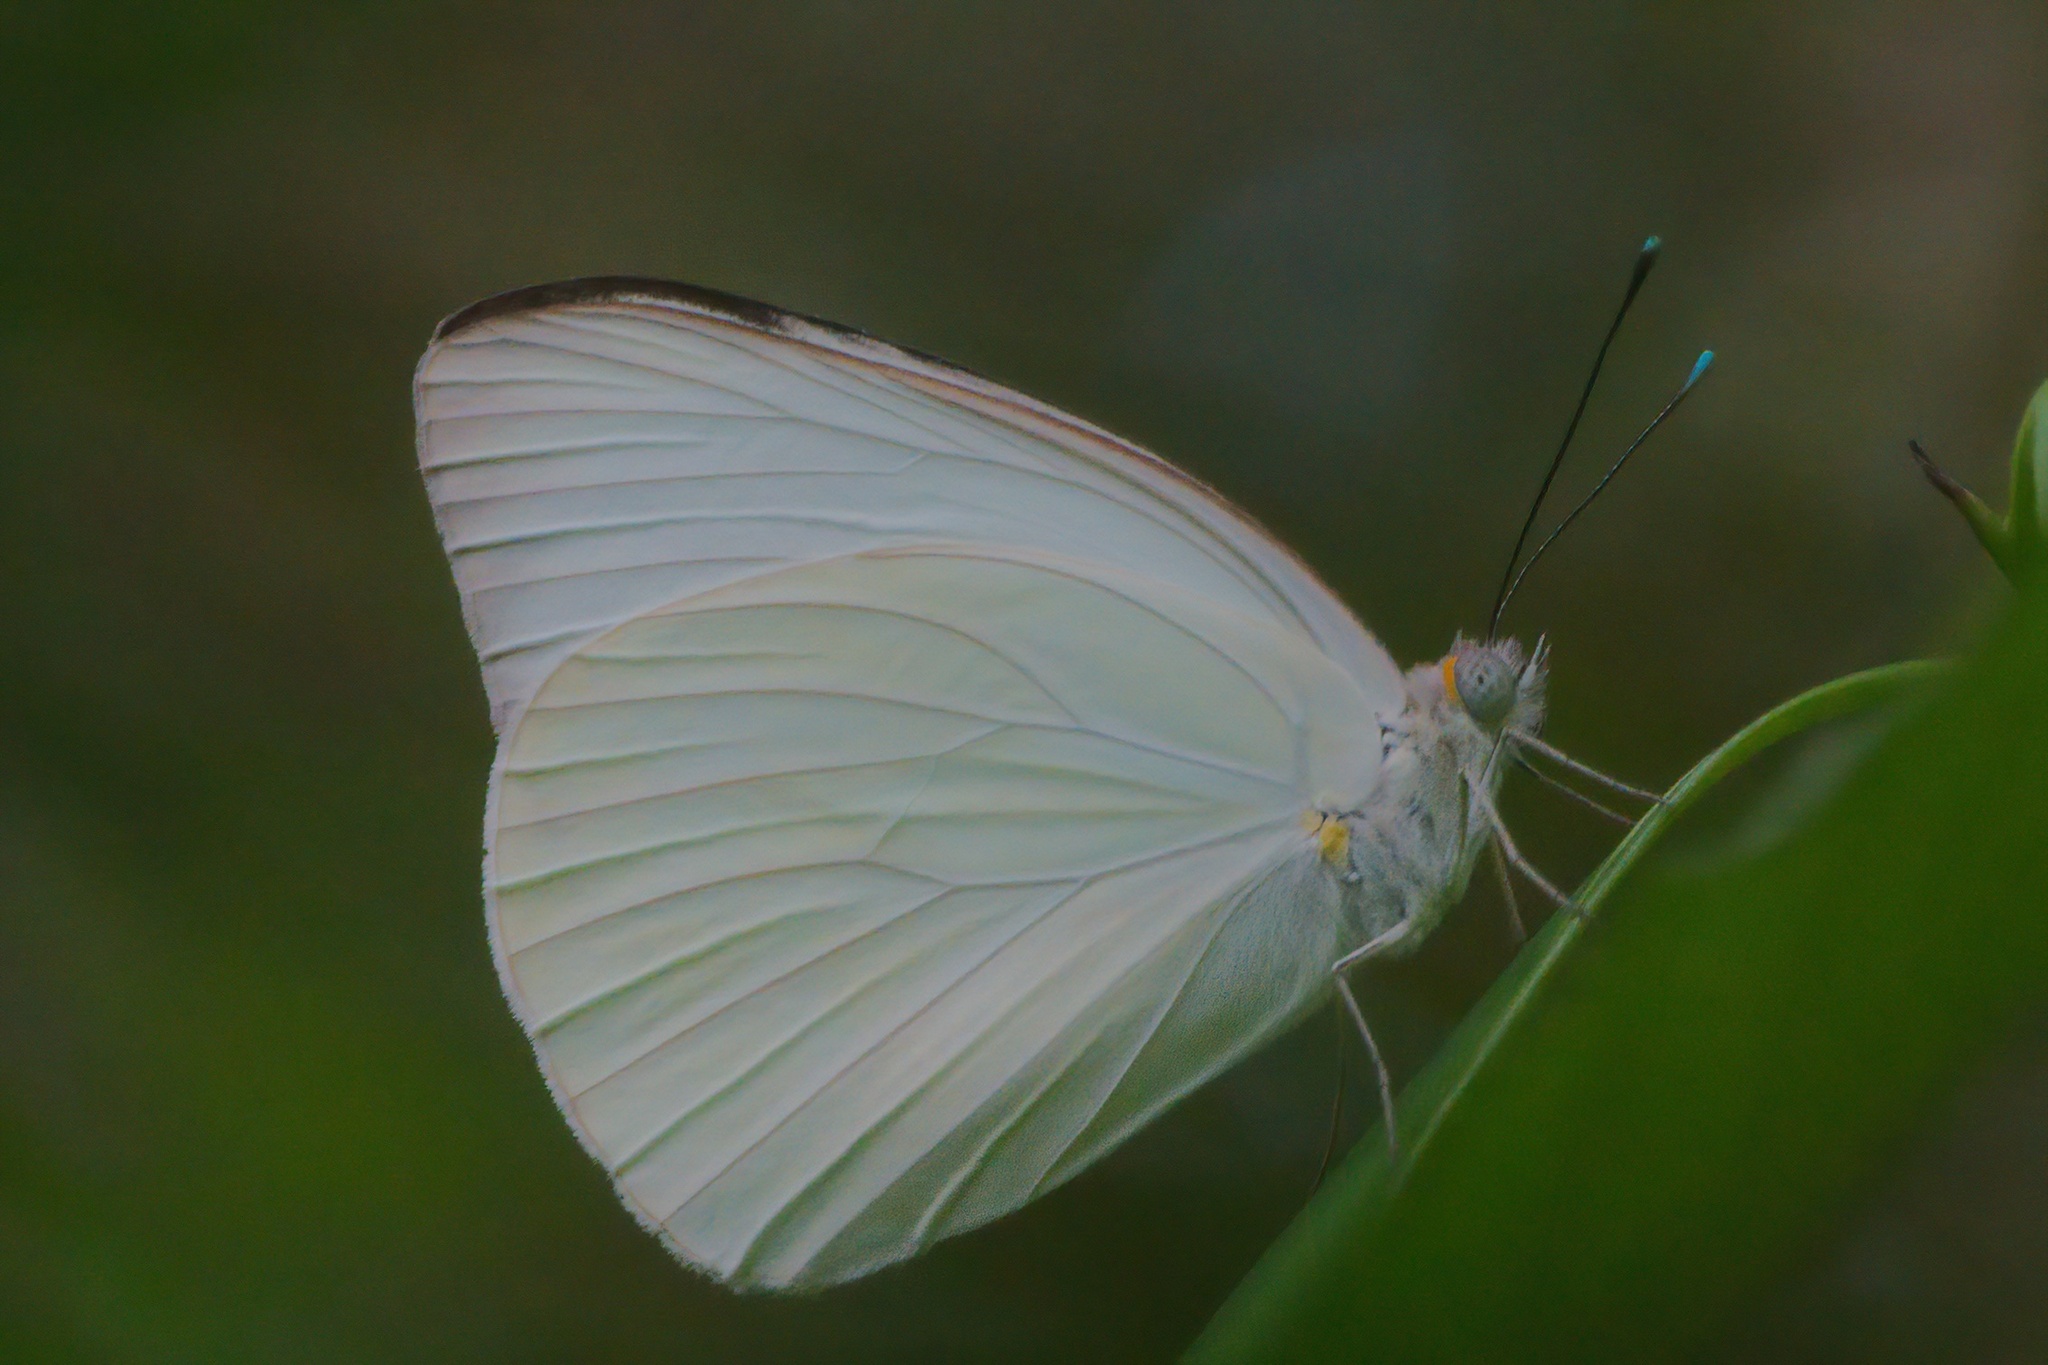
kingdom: Animalia
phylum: Arthropoda
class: Insecta
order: Lepidoptera
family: Pieridae
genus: Ascia
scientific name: Ascia monuste
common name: Great southern white
